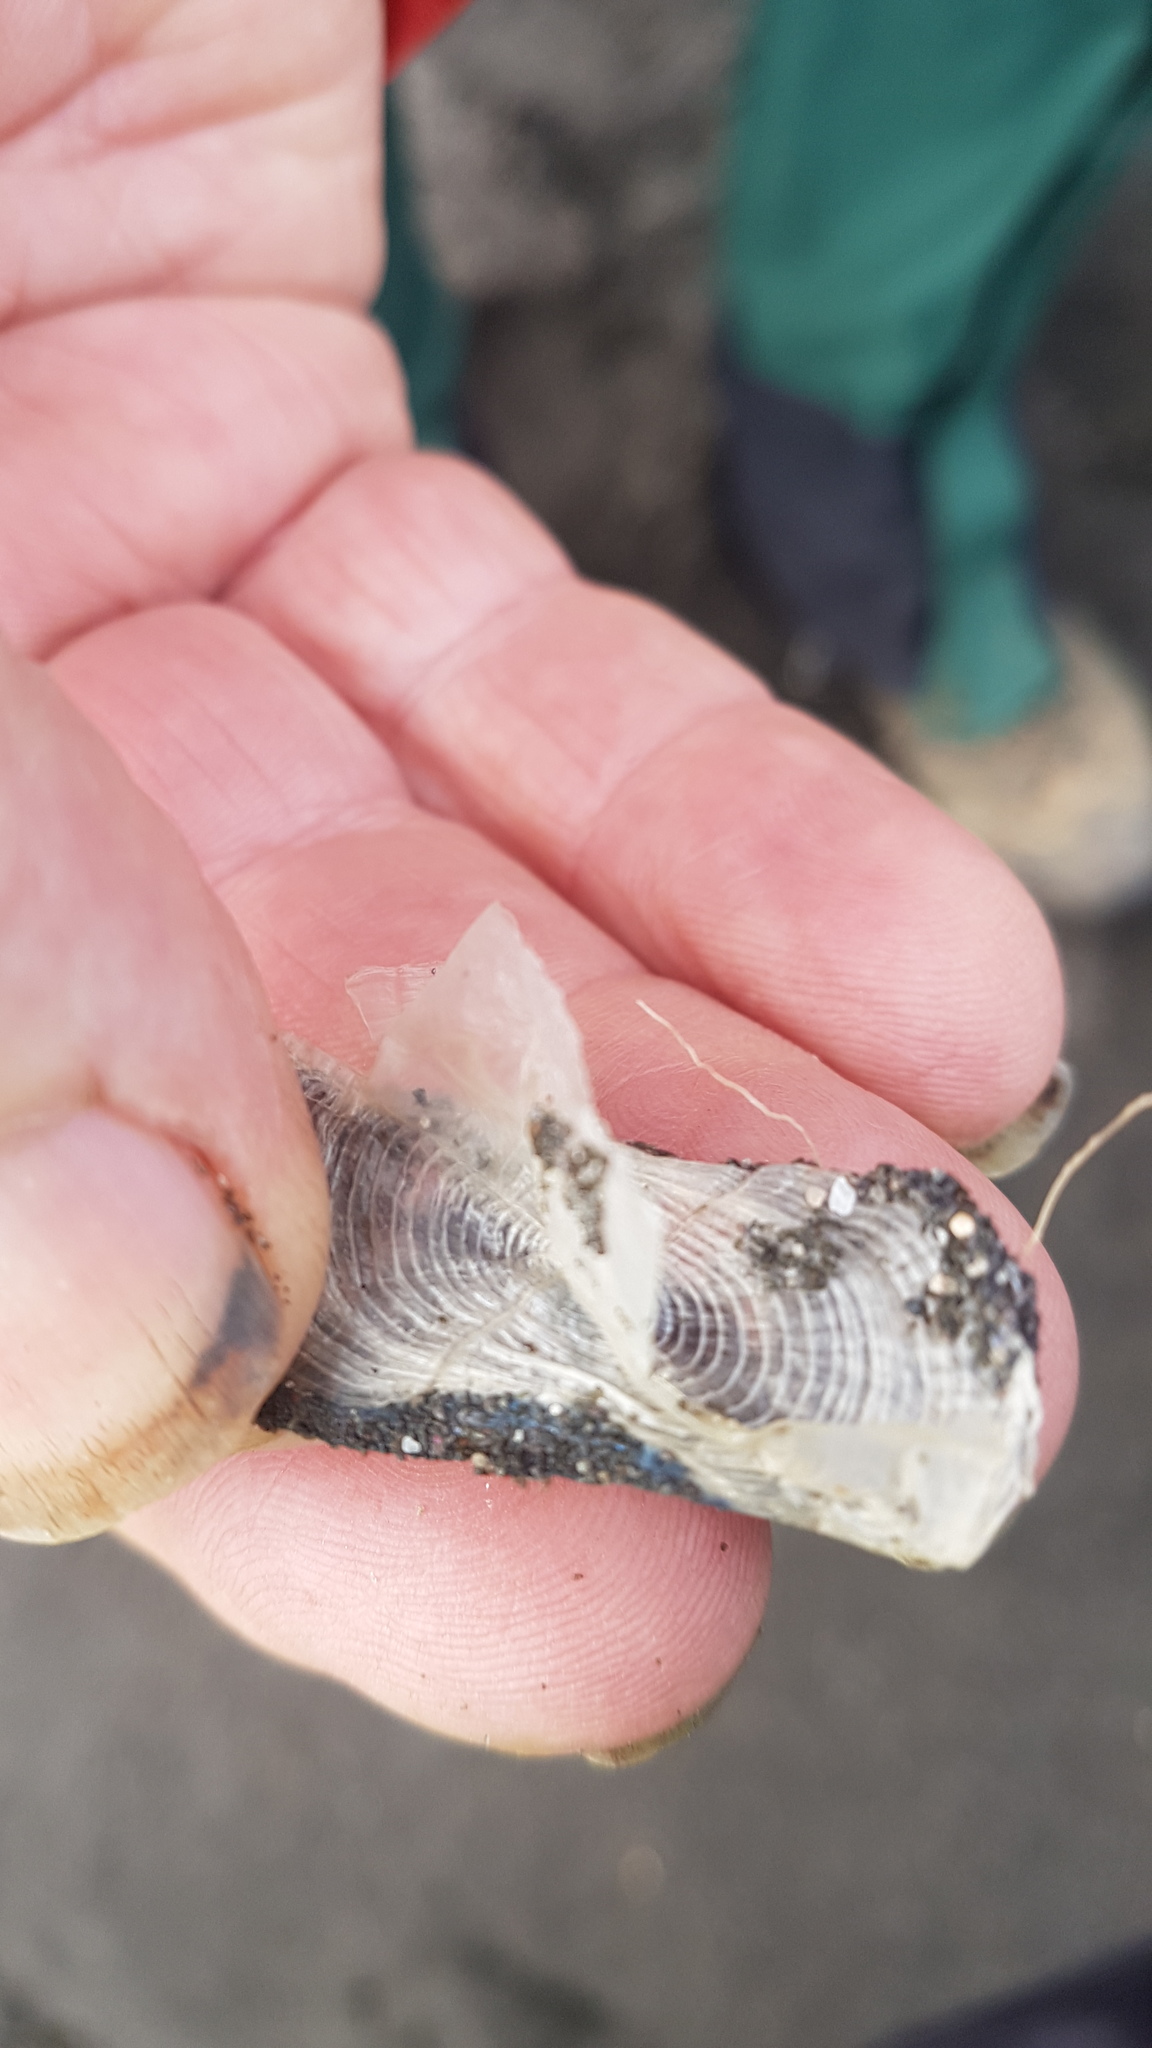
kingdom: Animalia
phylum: Cnidaria
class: Hydrozoa
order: Anthoathecata
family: Porpitidae
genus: Velella
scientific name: Velella velella
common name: By-the-wind-sailor
